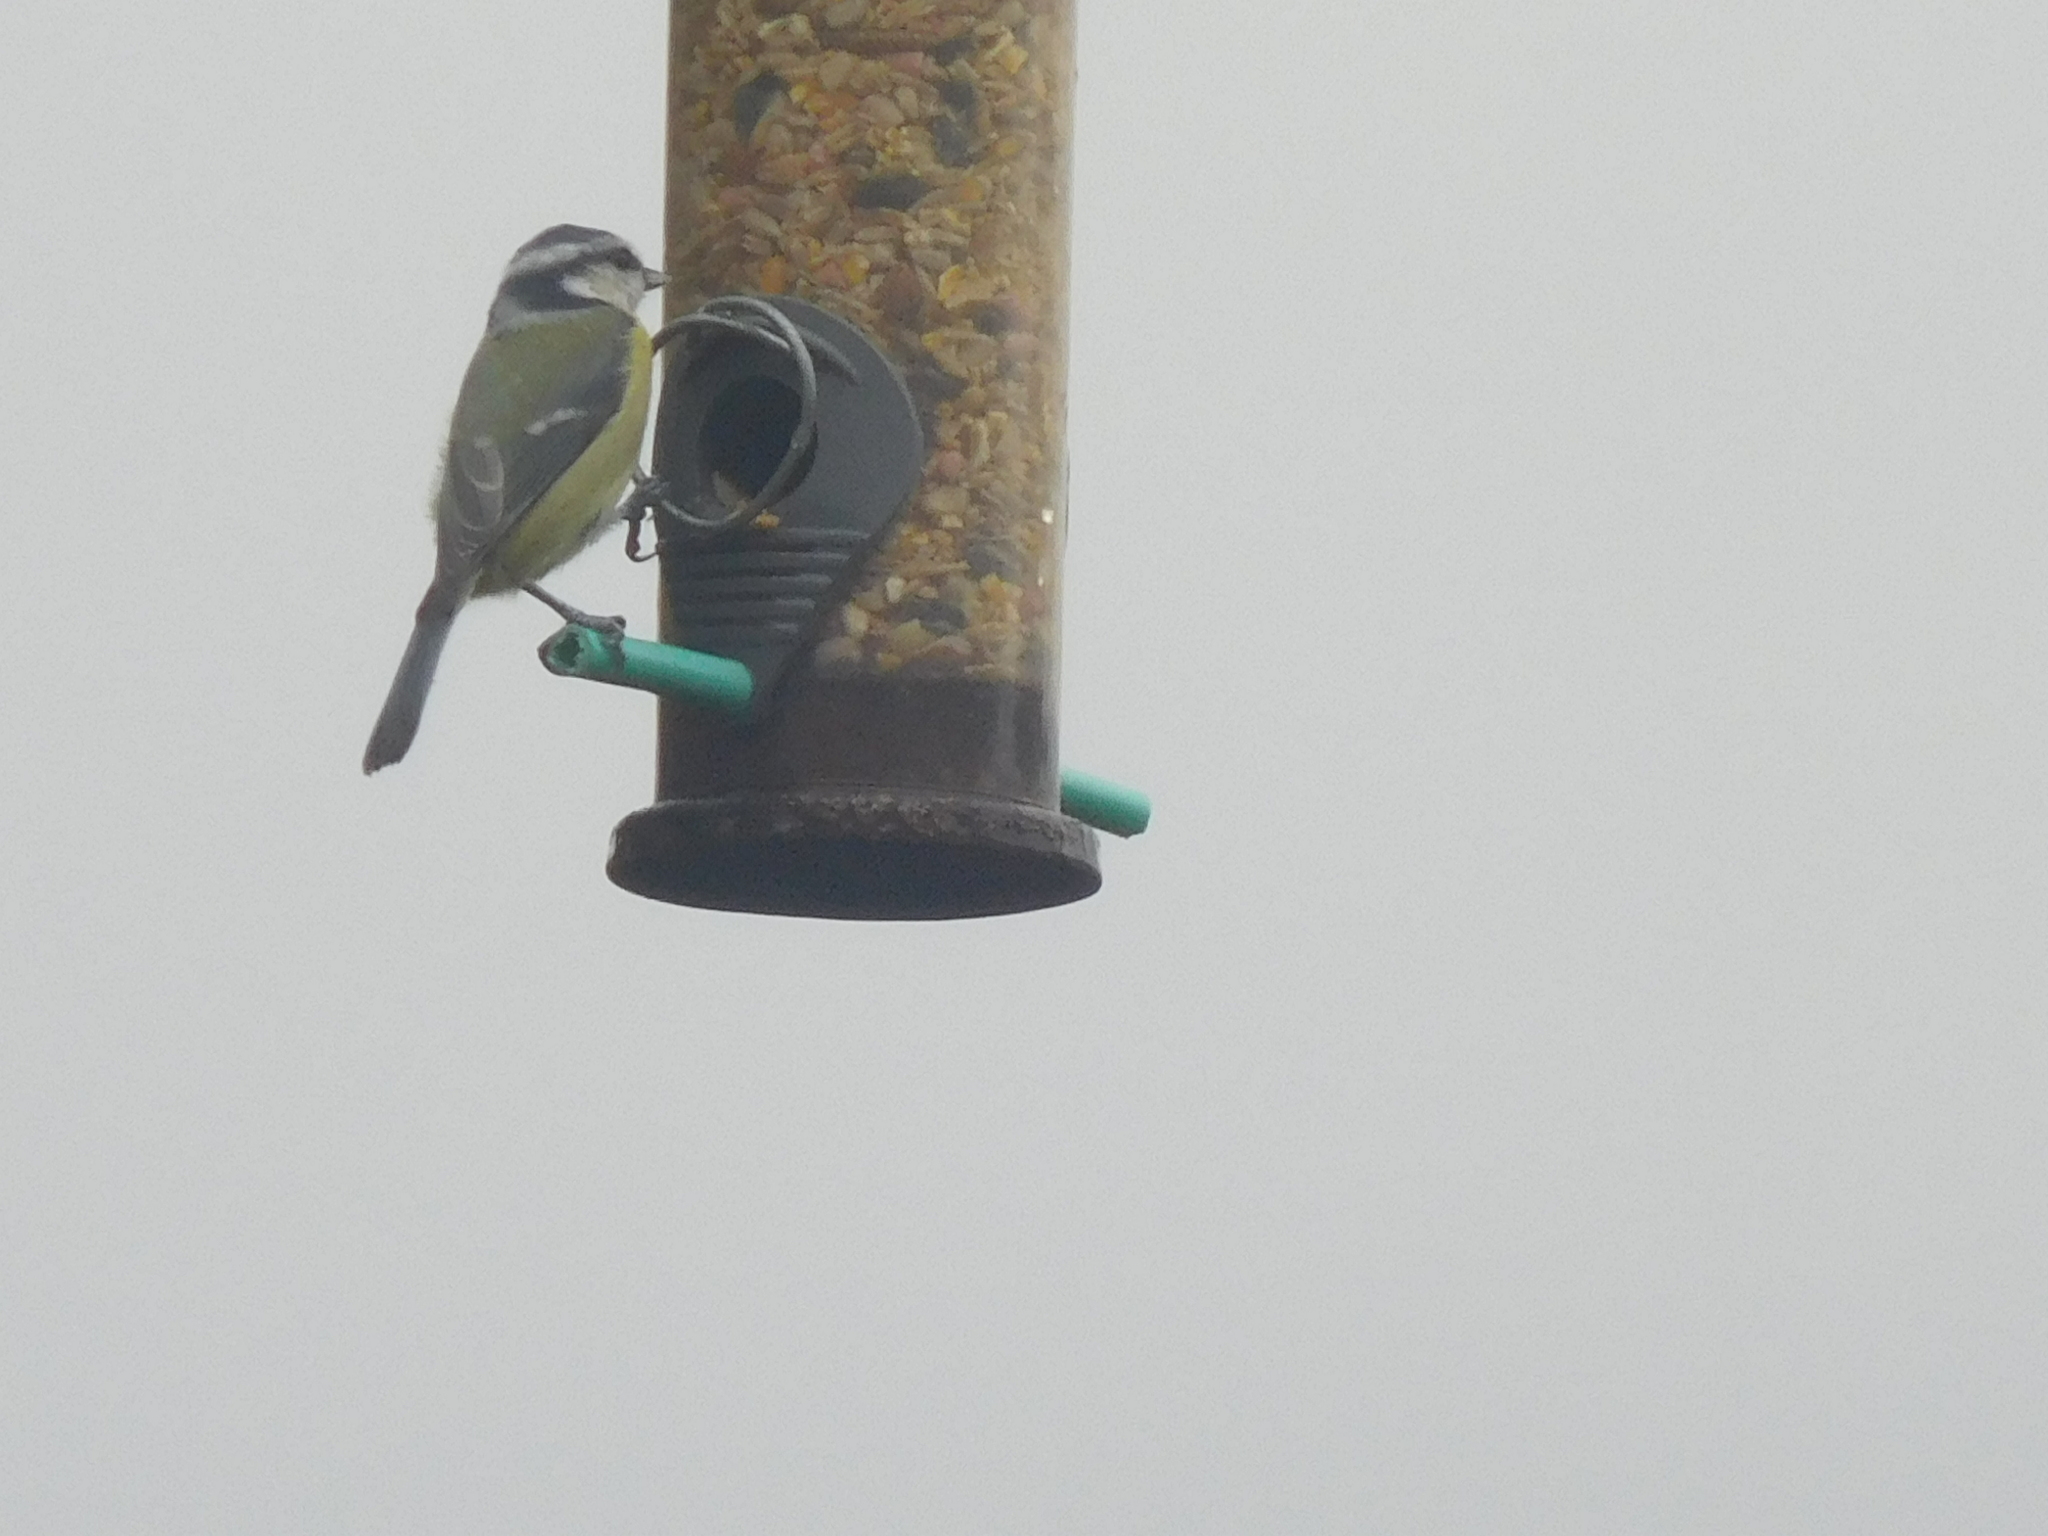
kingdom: Animalia
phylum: Chordata
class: Aves
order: Passeriformes
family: Paridae
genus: Cyanistes
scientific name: Cyanistes caeruleus
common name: Eurasian blue tit
